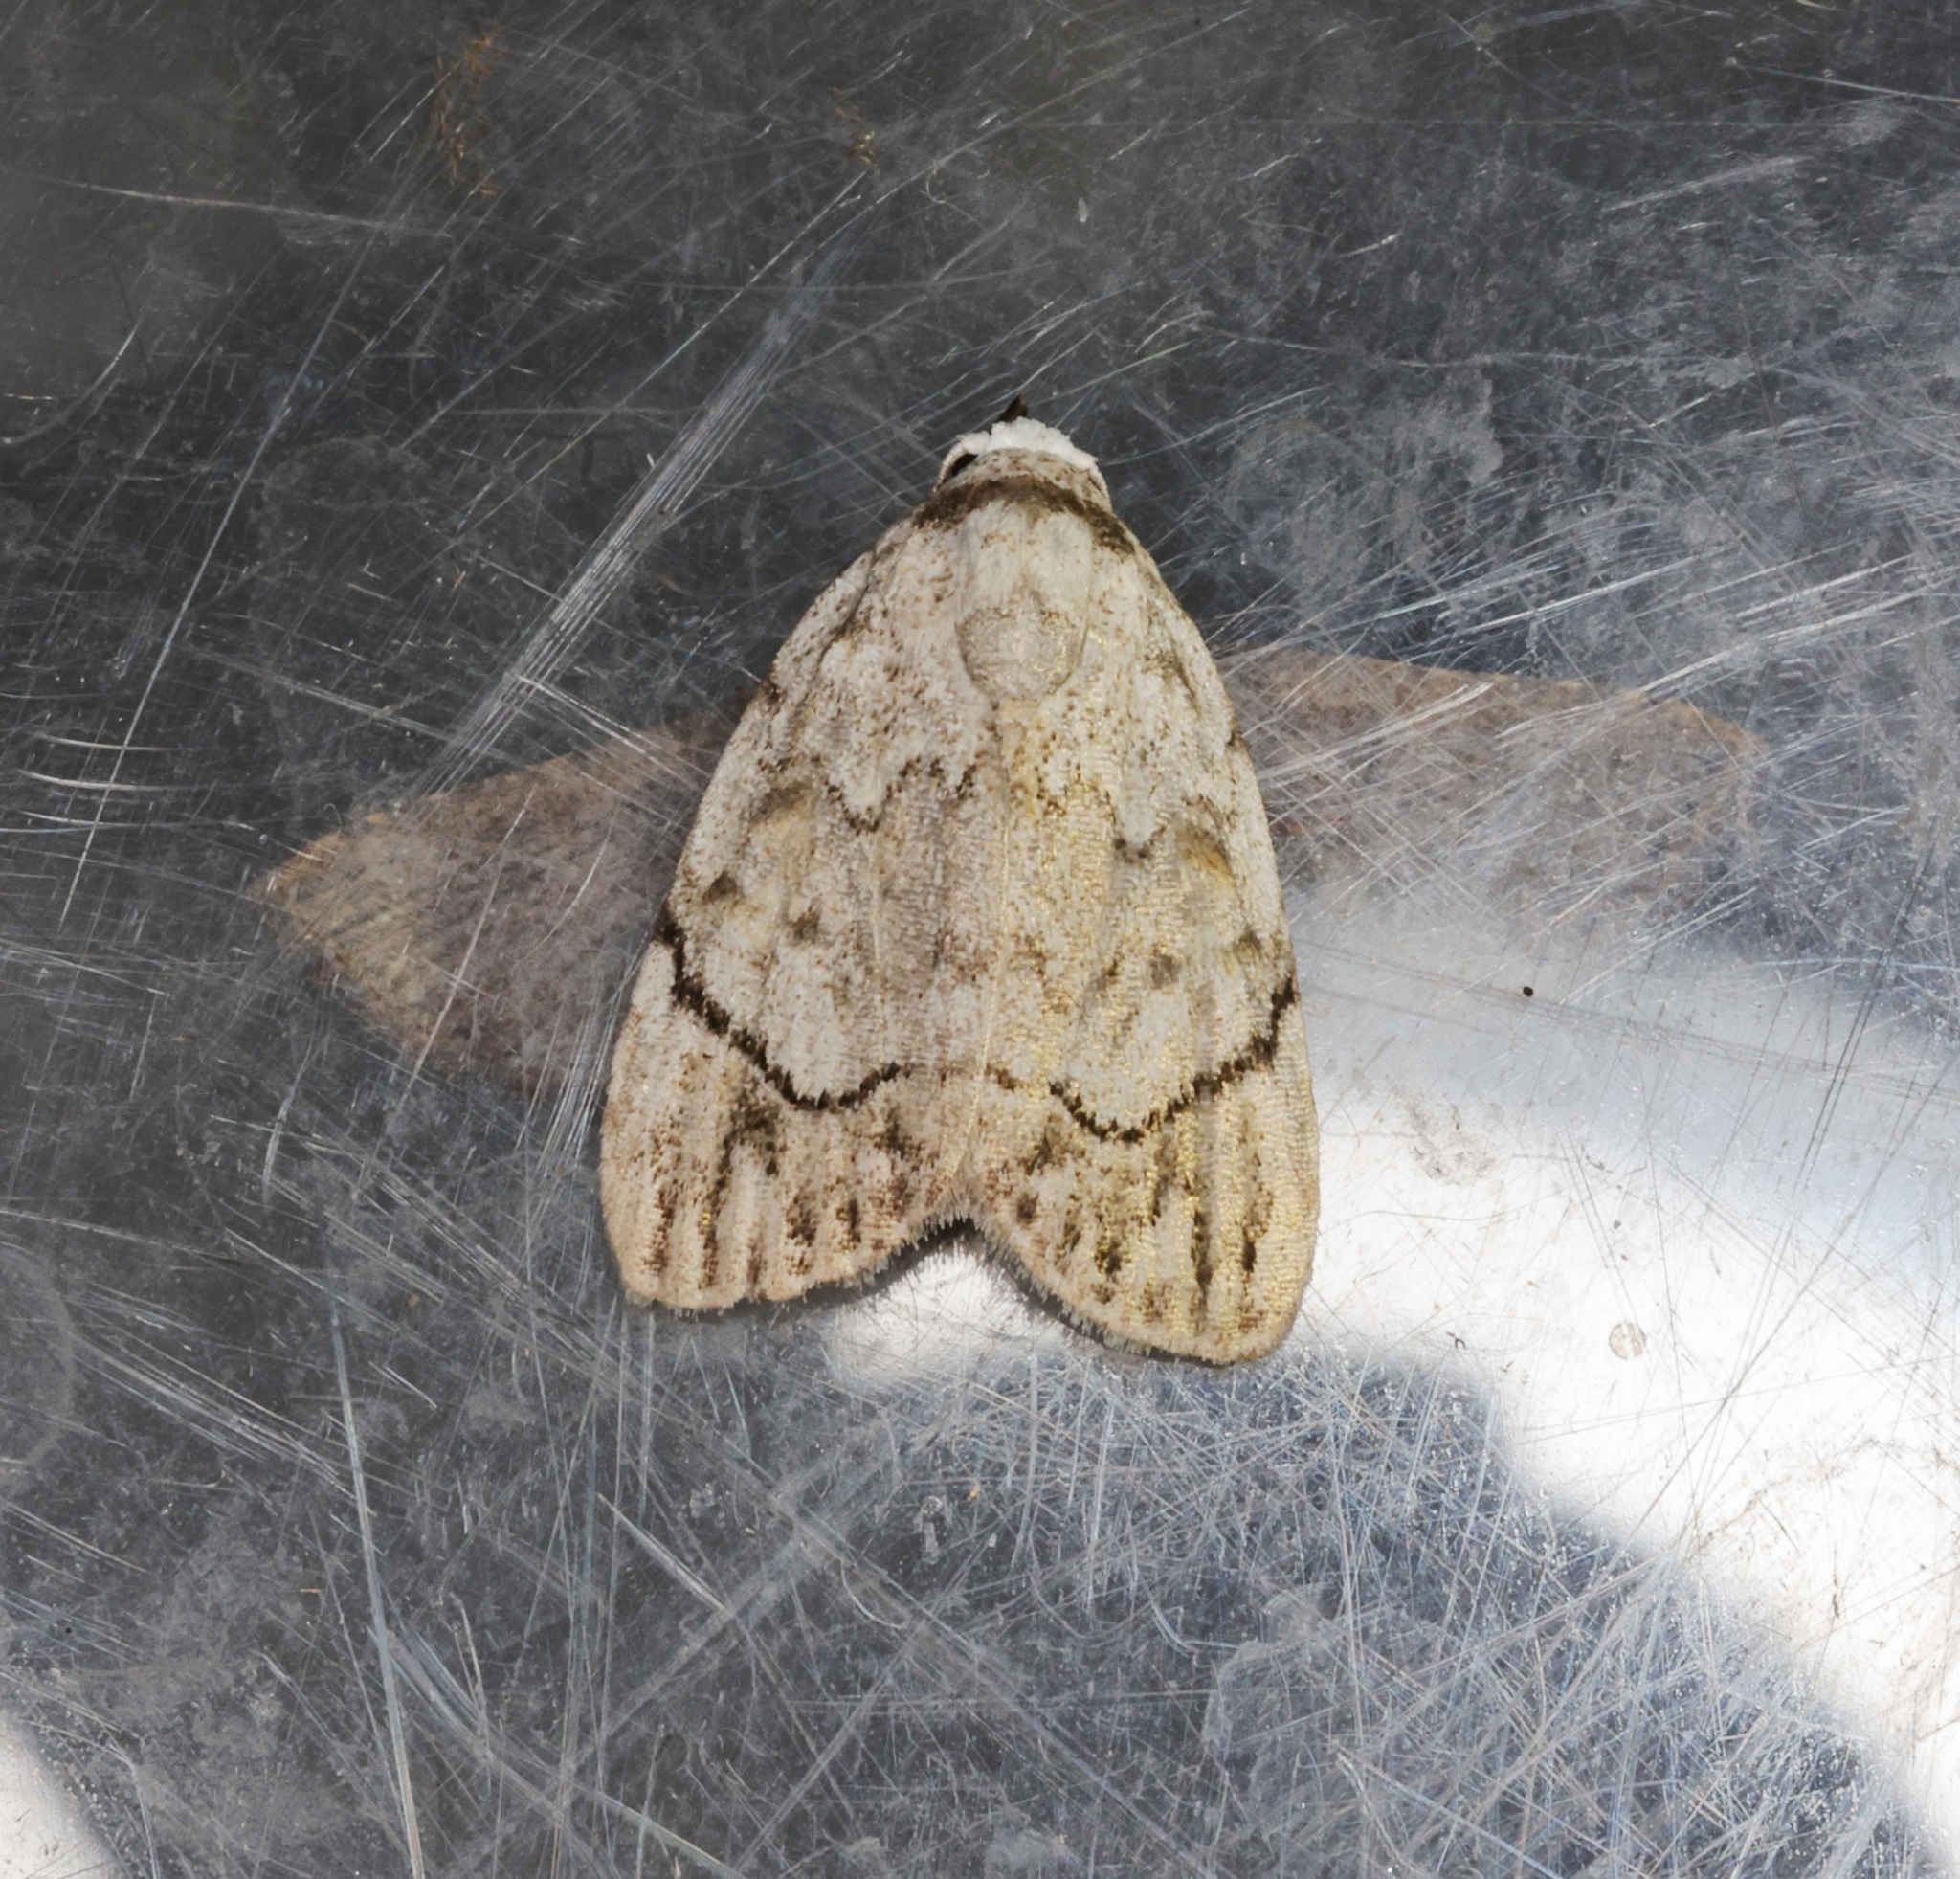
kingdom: Animalia
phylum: Arthropoda
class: Insecta
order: Lepidoptera
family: Nolidae
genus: Melanographia
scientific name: Melanographia flexilineata
